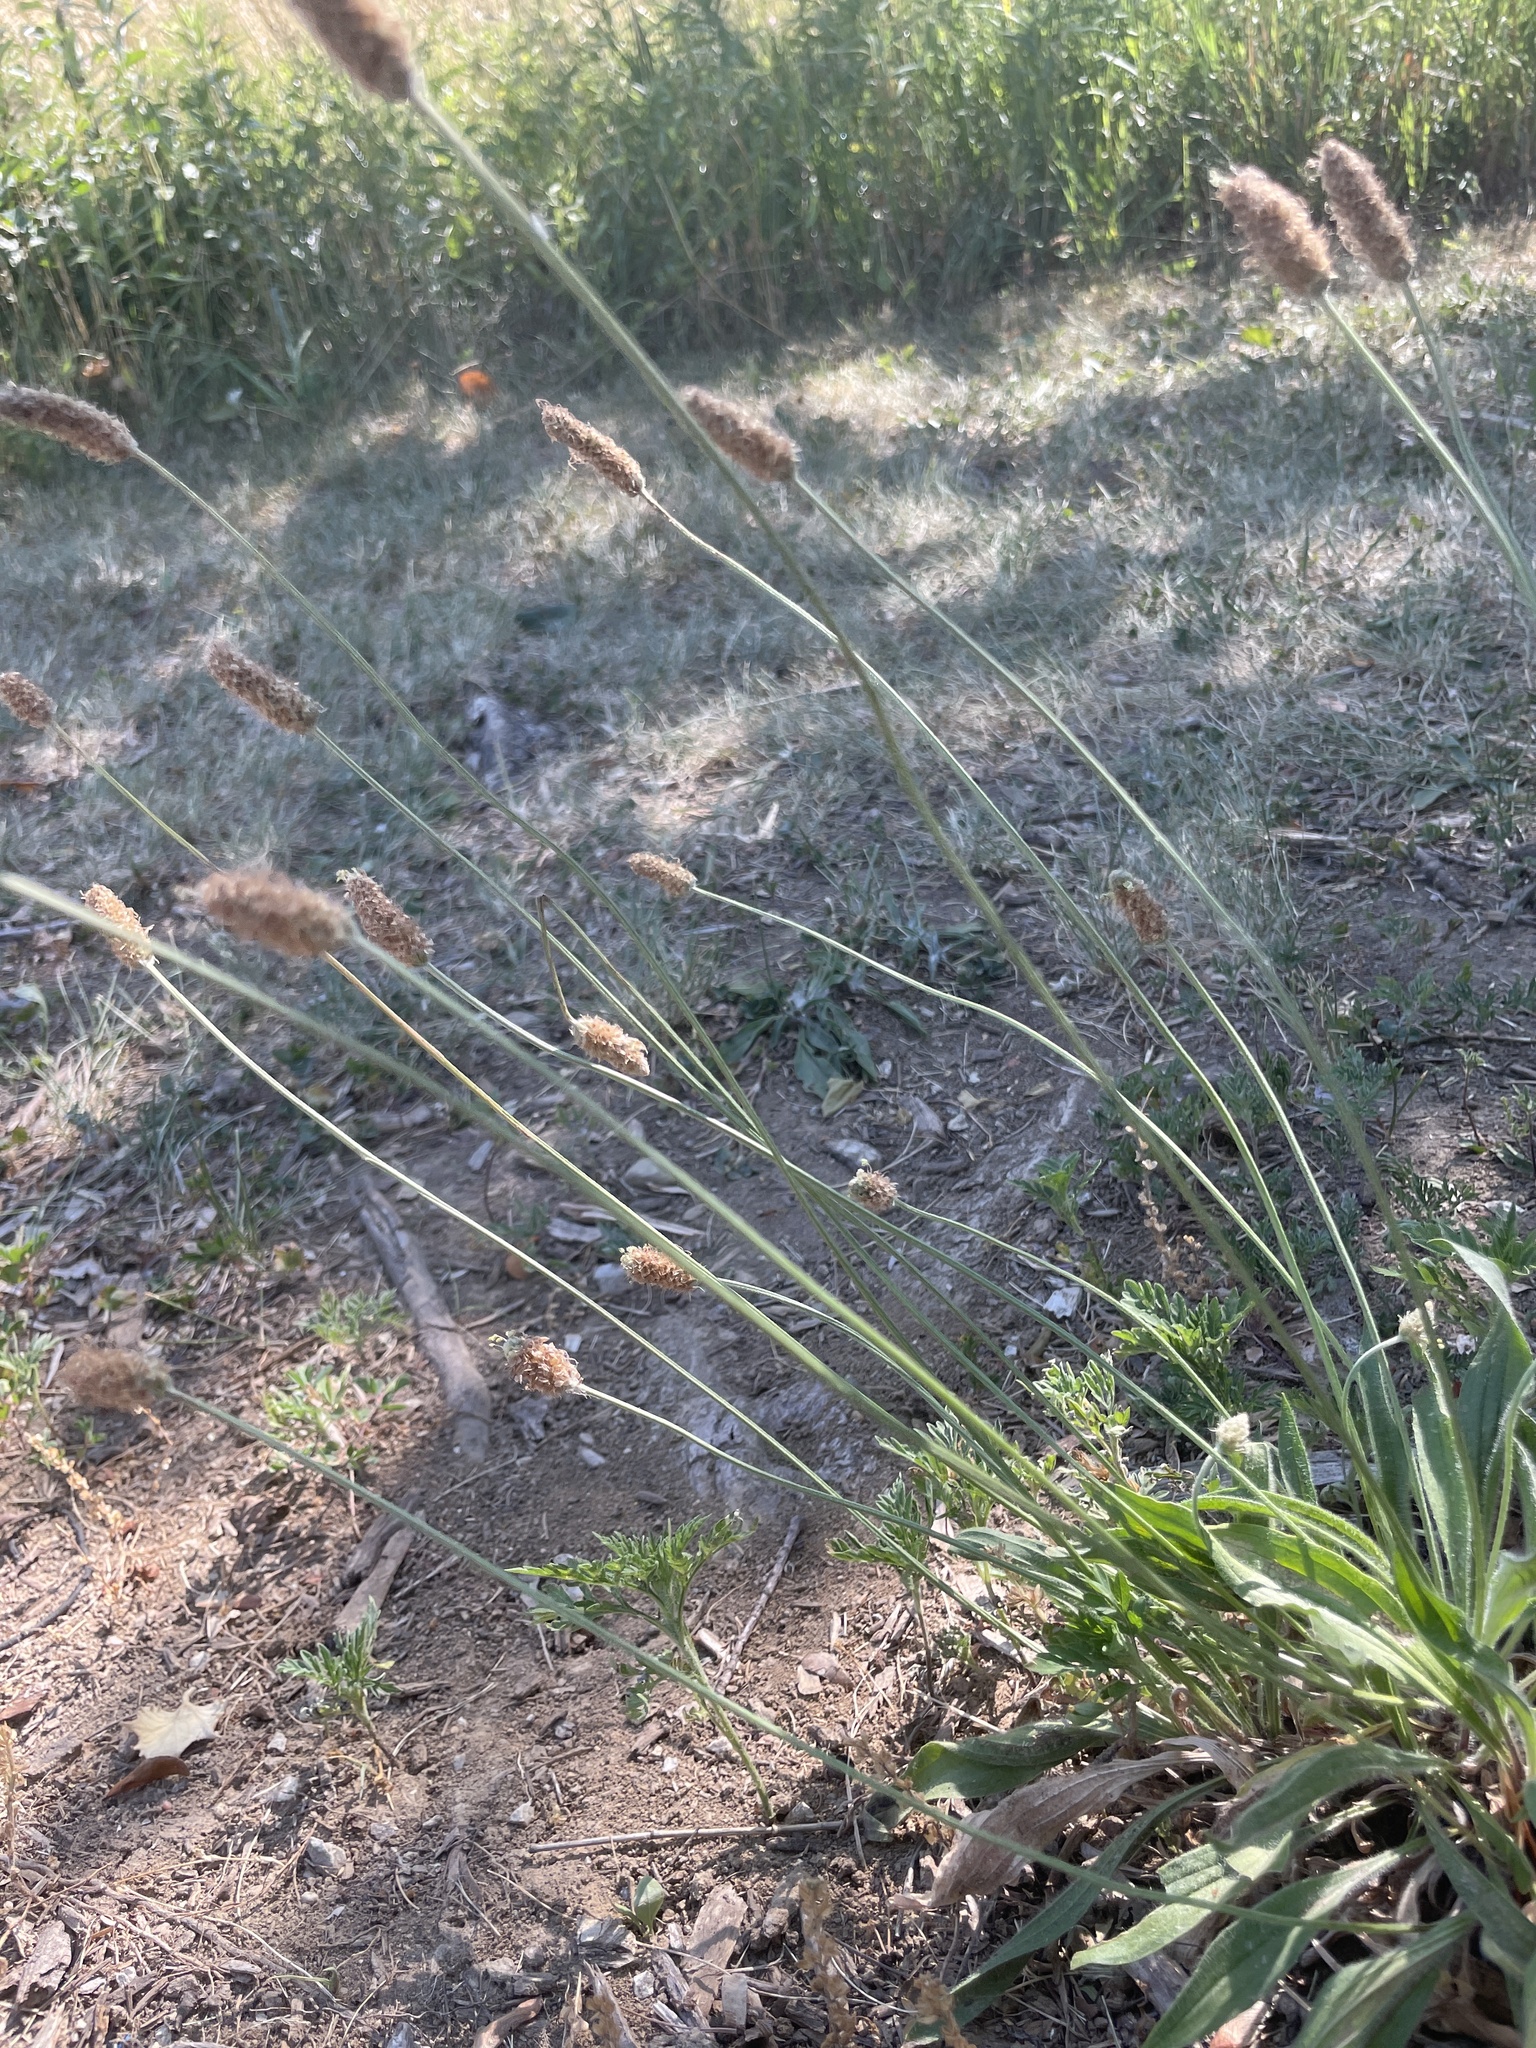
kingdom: Plantae
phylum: Tracheophyta
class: Magnoliopsida
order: Lamiales
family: Plantaginaceae
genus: Plantago
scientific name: Plantago lanceolata
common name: Ribwort plantain
